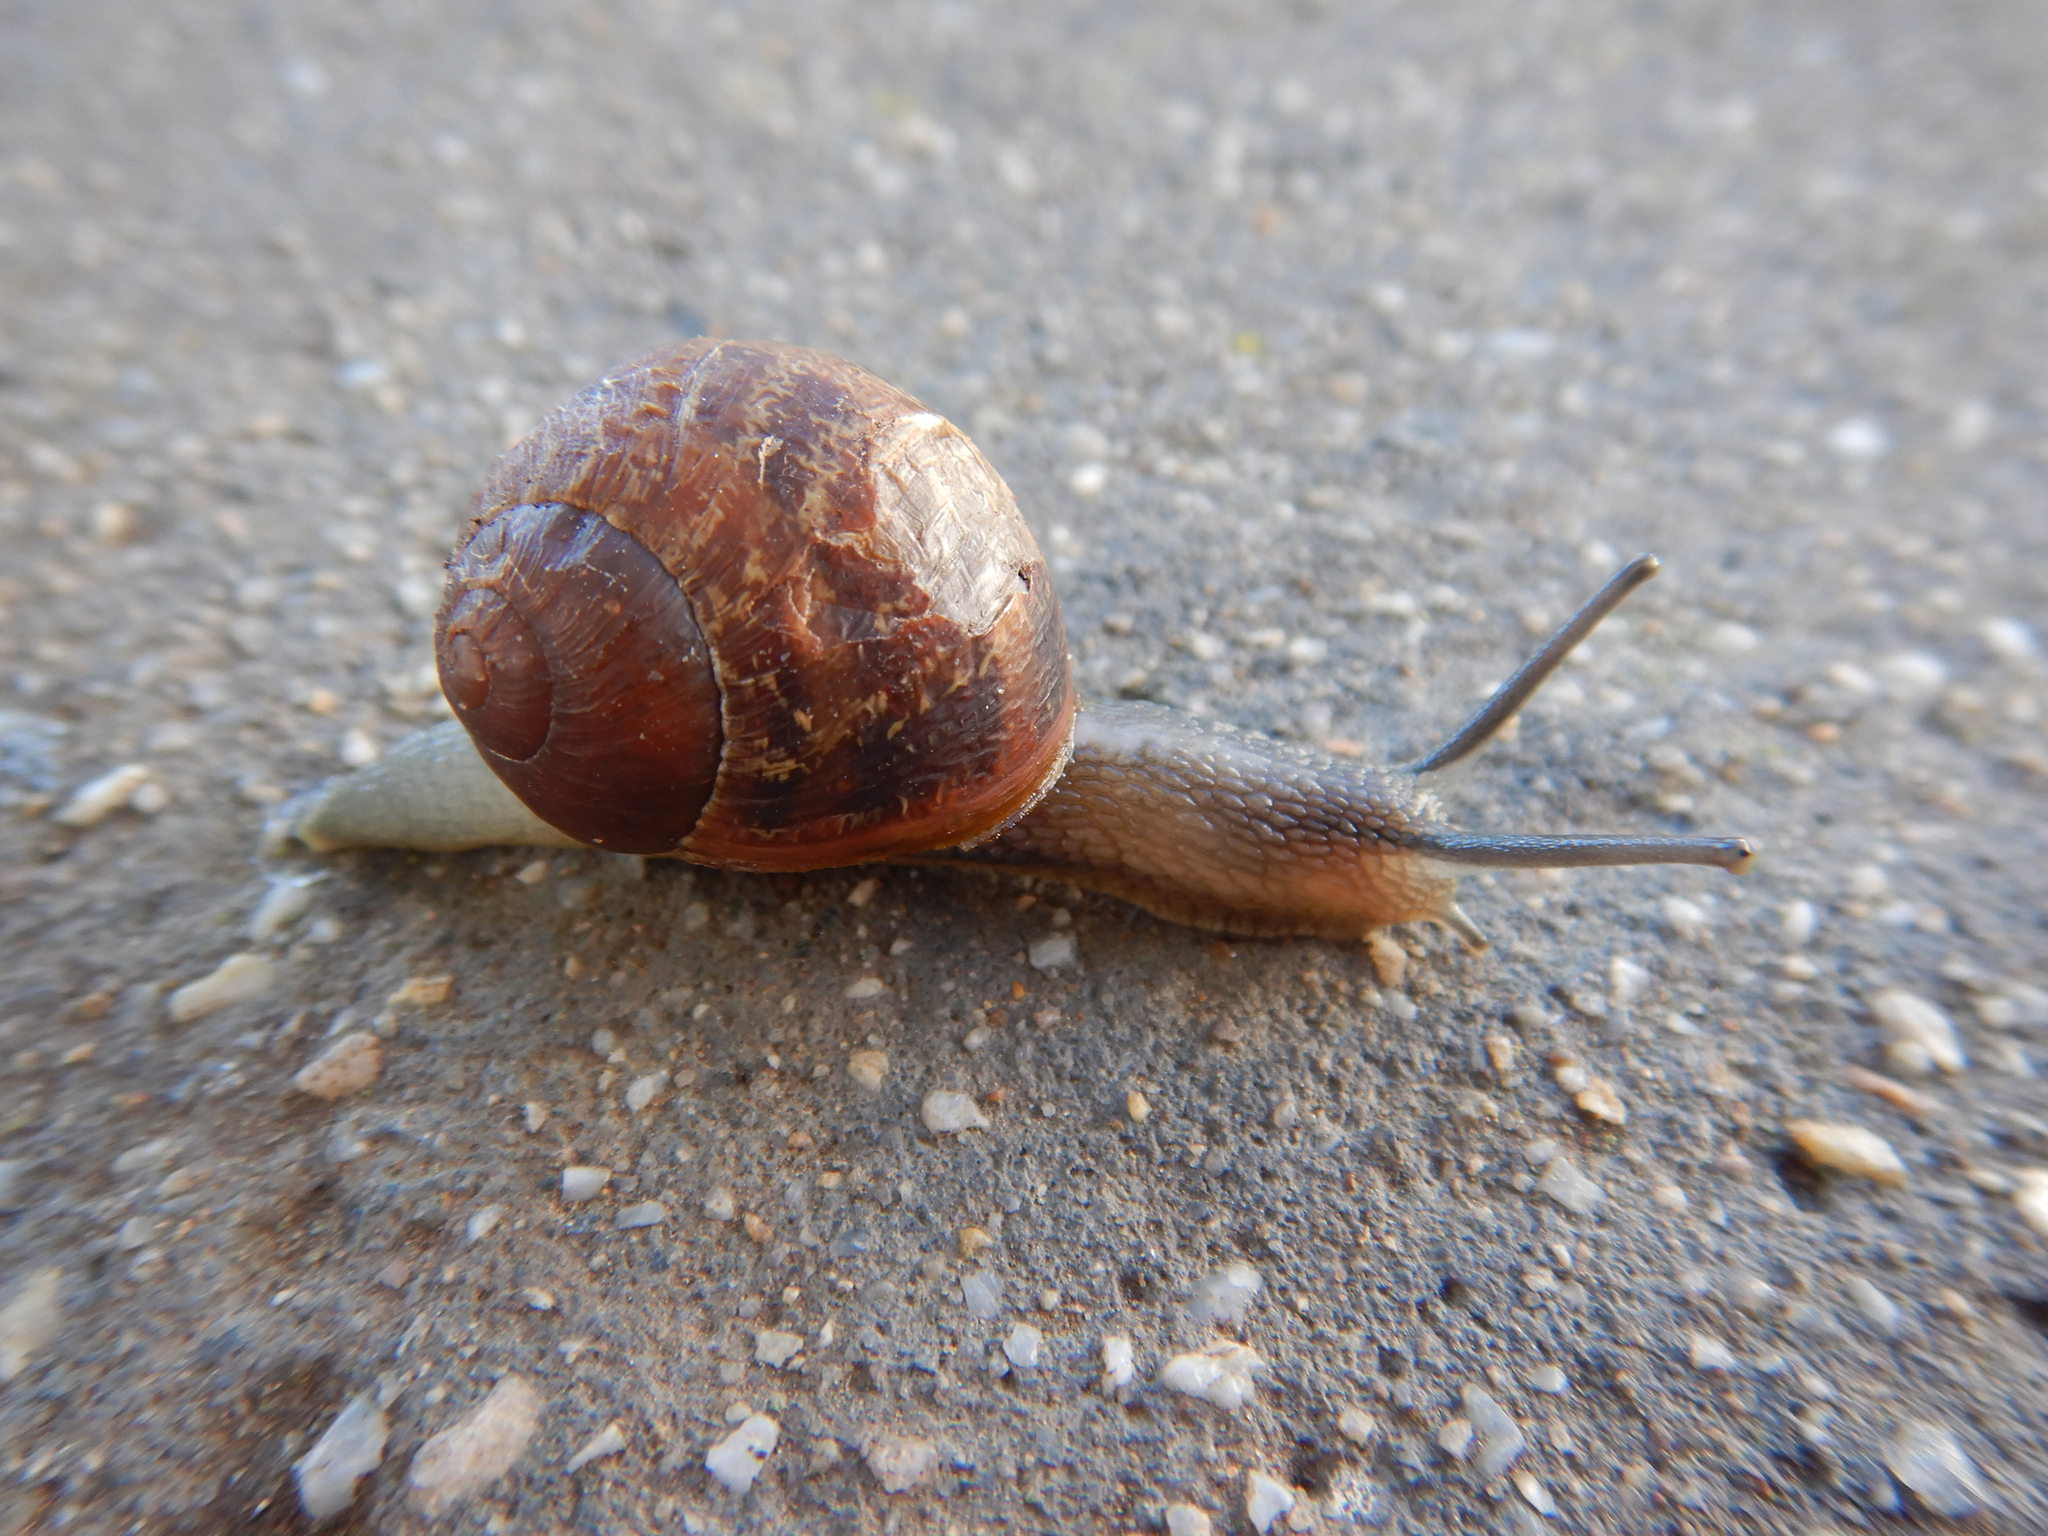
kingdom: Animalia
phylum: Mollusca
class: Gastropoda
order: Stylommatophora
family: Helicidae
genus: Cornu
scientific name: Cornu aspersum
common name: Brown garden snail
